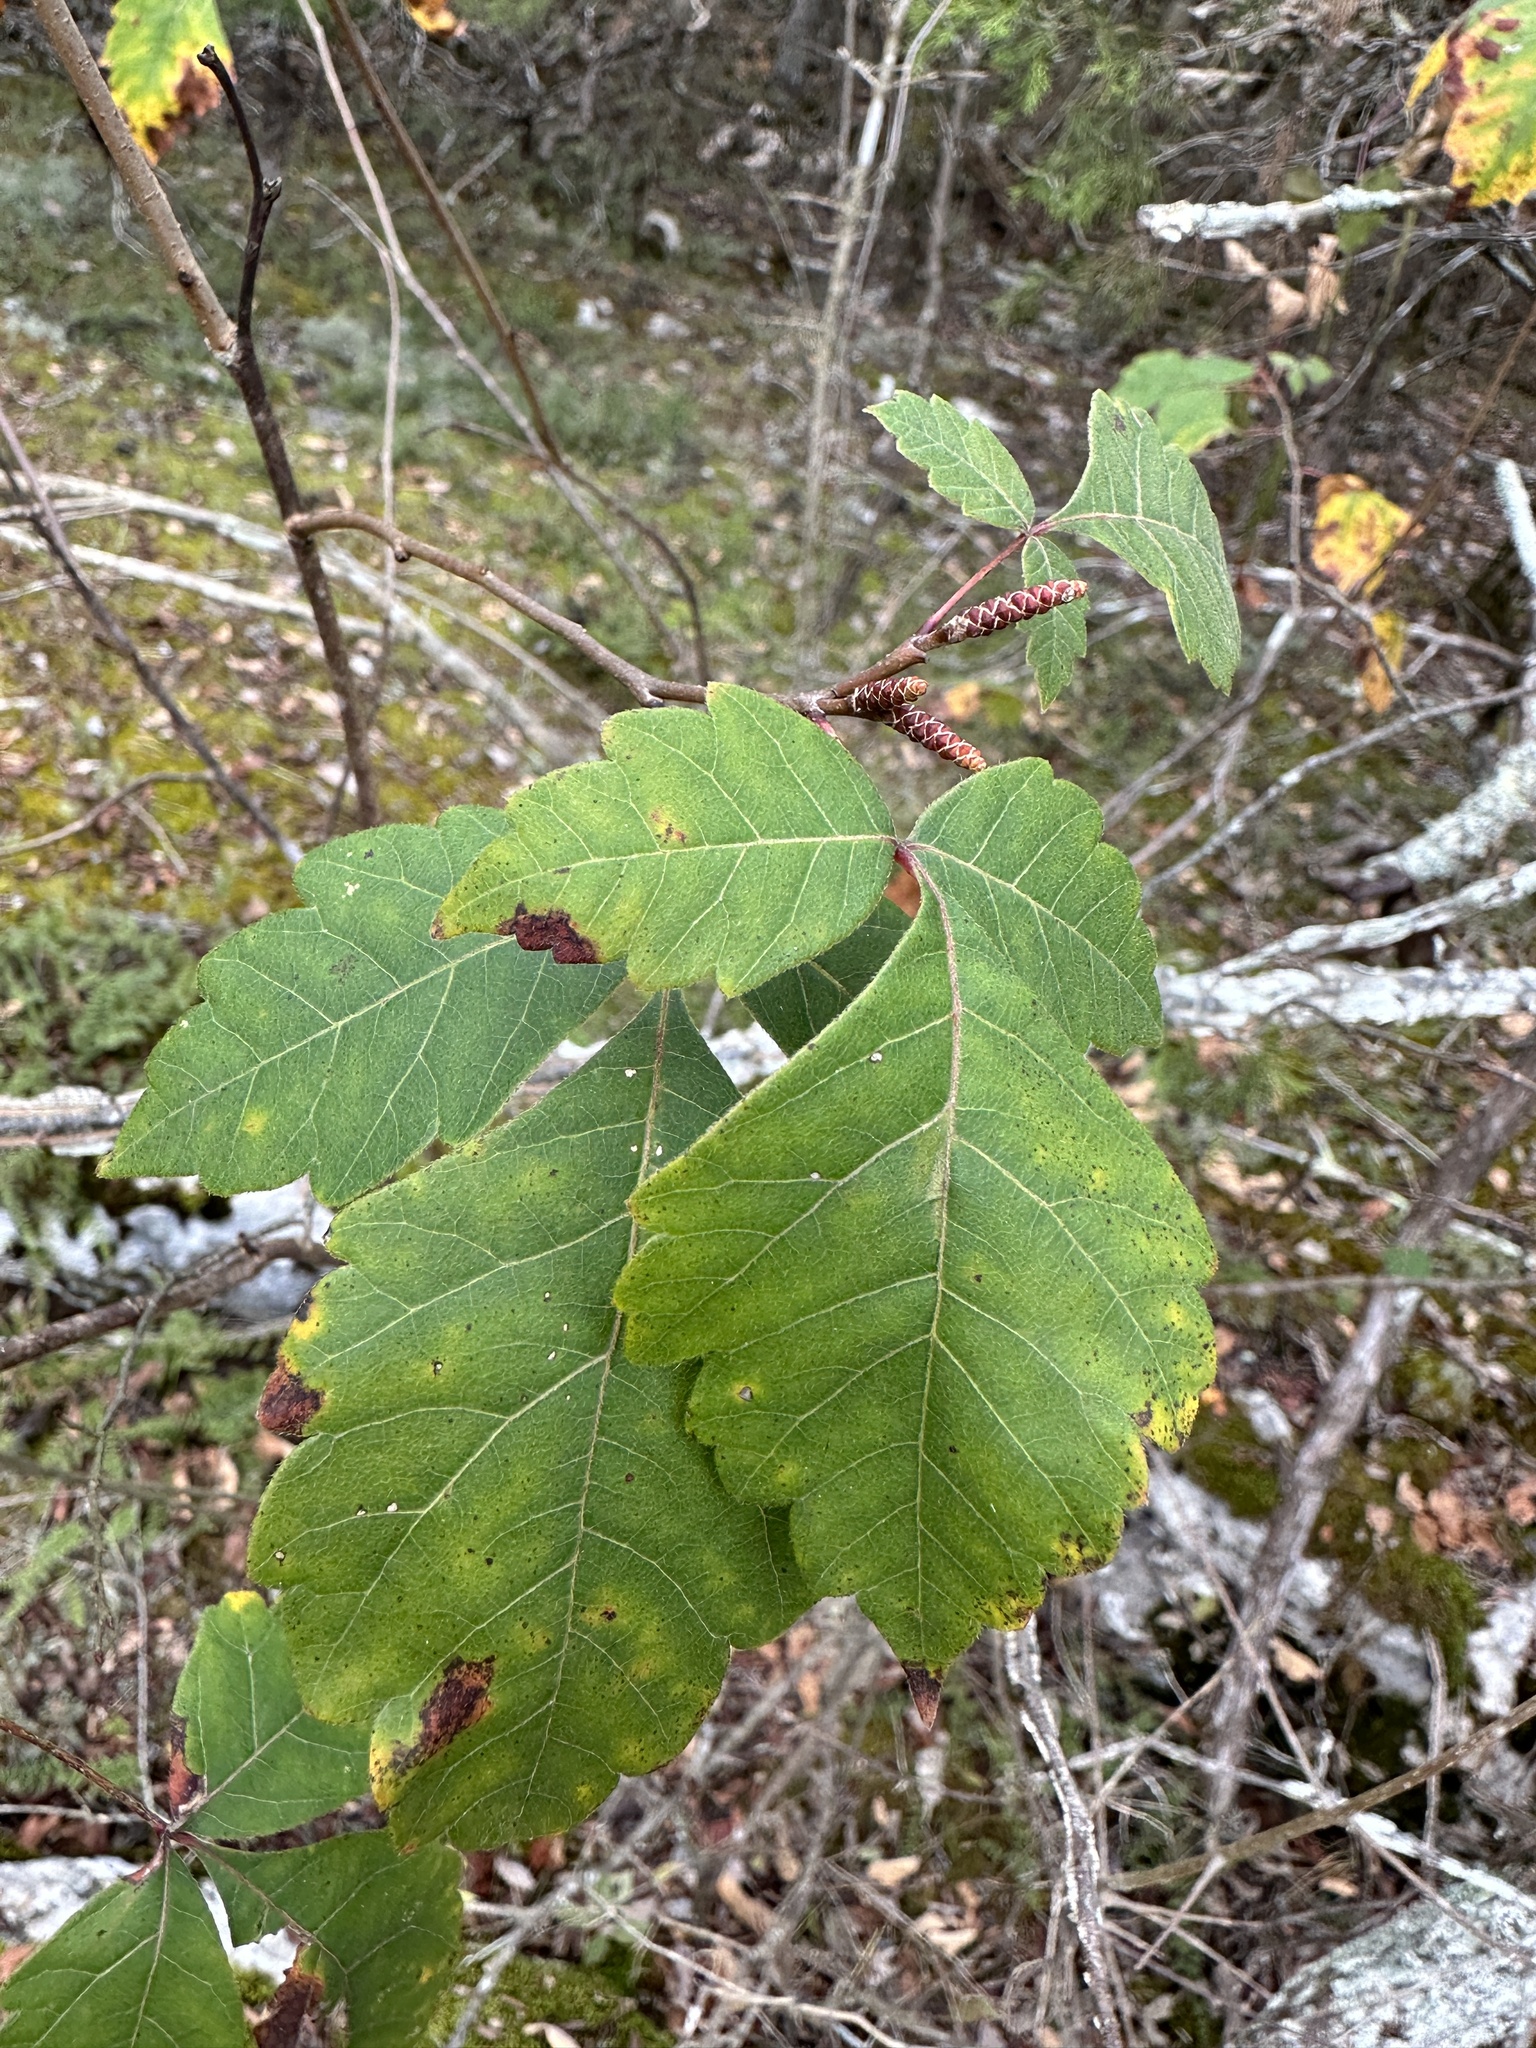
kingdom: Plantae
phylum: Tracheophyta
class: Magnoliopsida
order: Sapindales
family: Anacardiaceae
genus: Rhus
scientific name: Rhus aromatica
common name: Aromatic sumac
